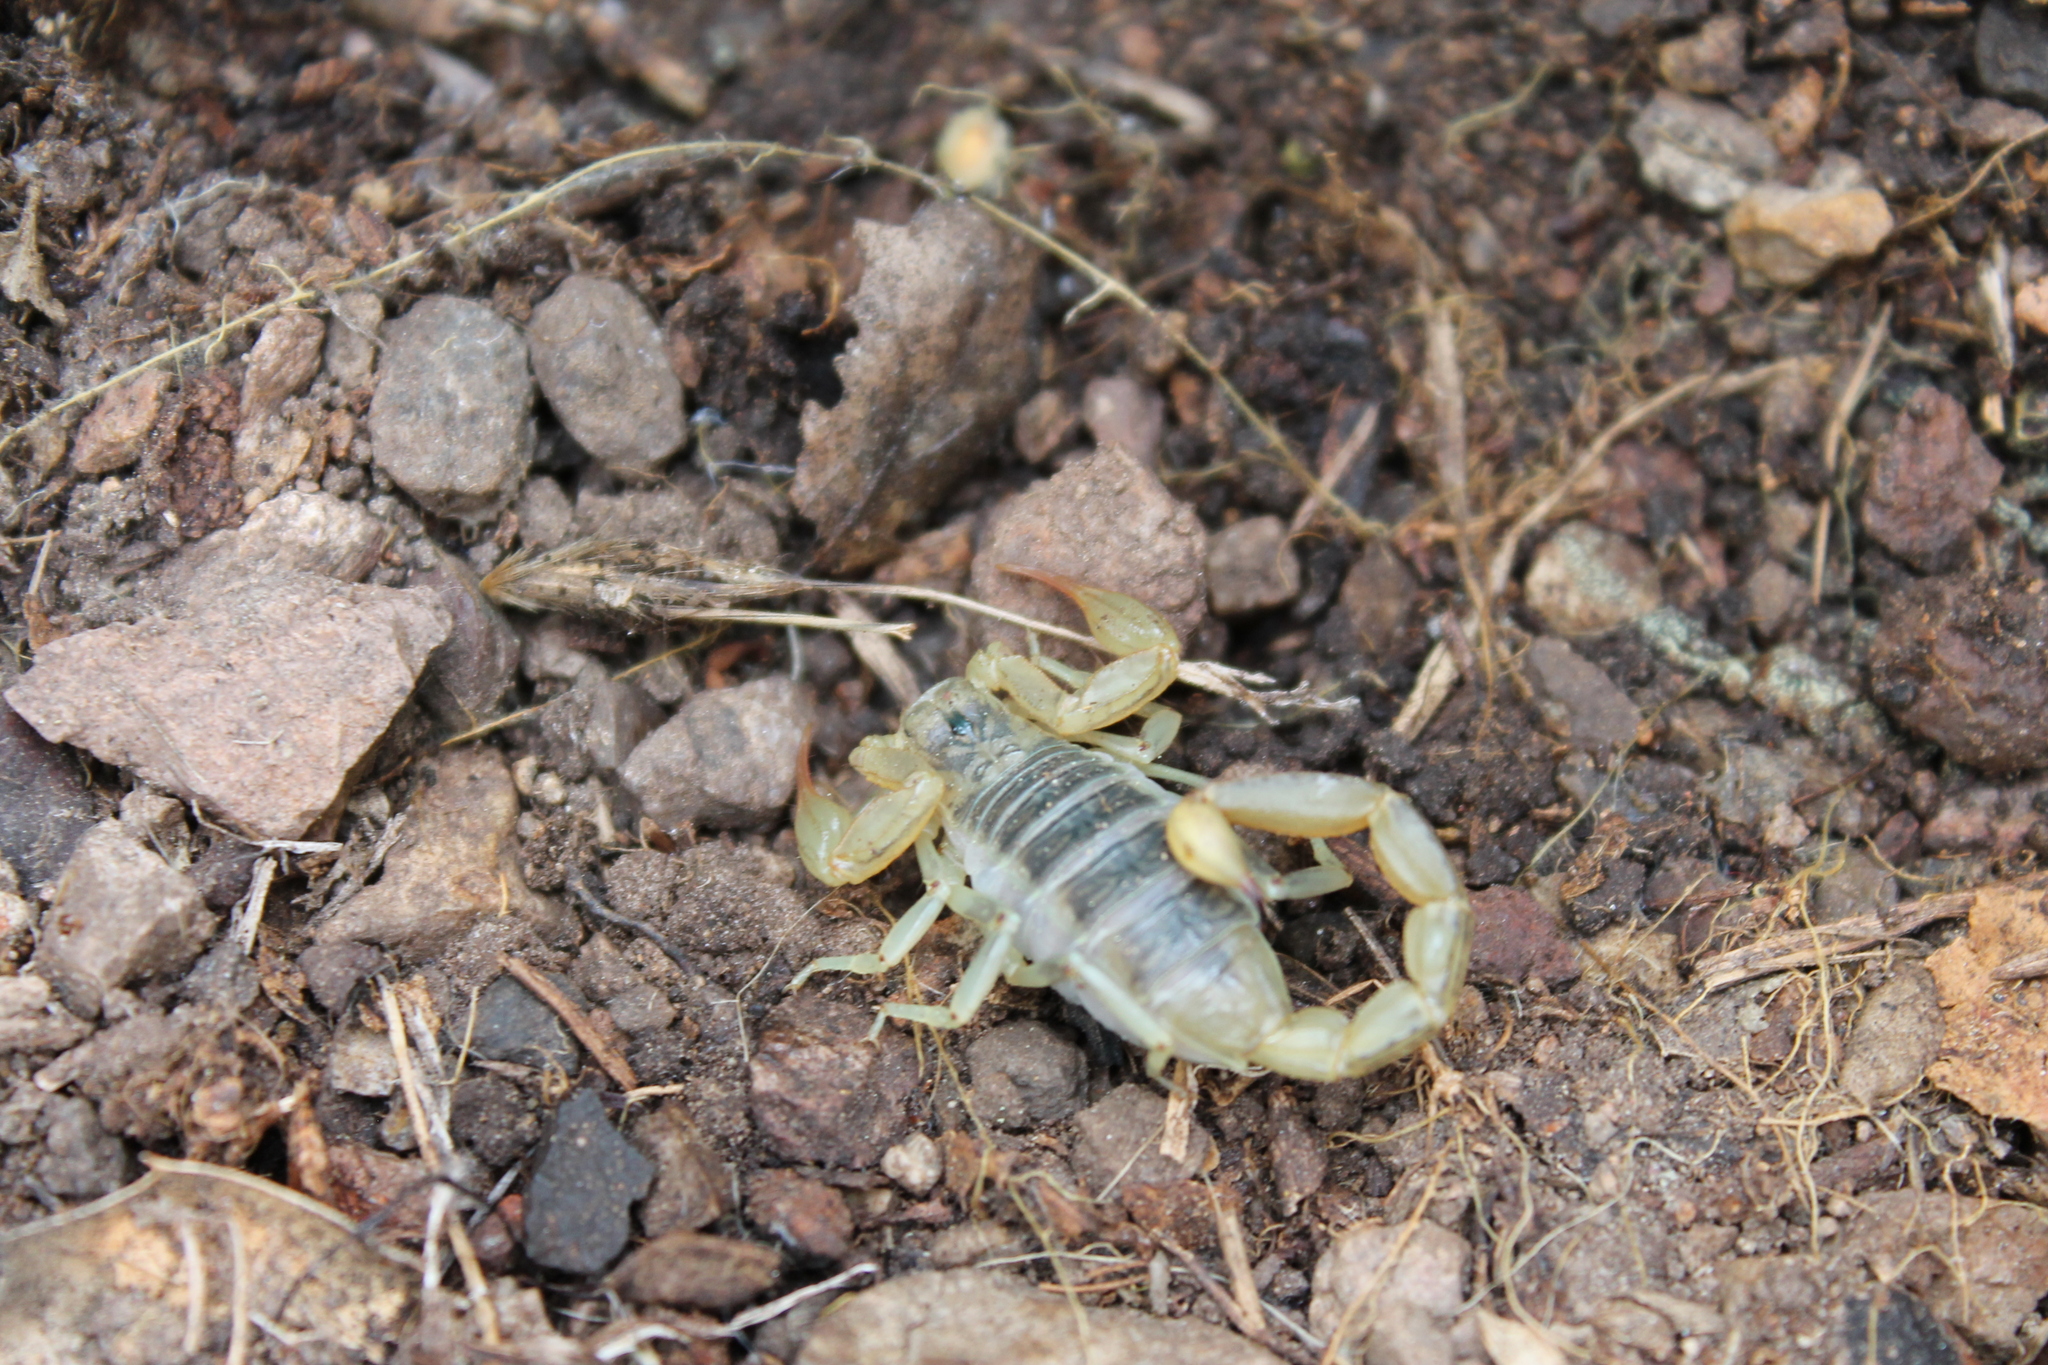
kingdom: Animalia
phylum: Arthropoda
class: Arachnida
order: Scorpiones
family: Vaejovidae
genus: Paruroctonus
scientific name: Paruroctonus silvestrii
